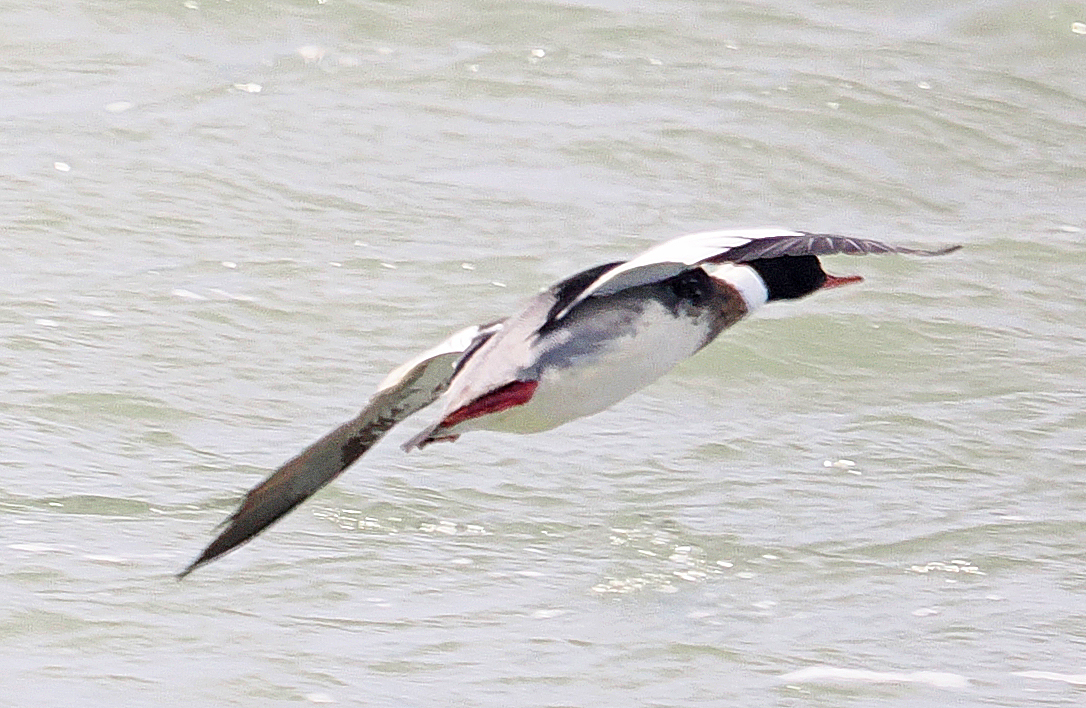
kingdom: Animalia
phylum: Chordata
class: Aves
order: Anseriformes
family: Anatidae
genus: Mergus
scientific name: Mergus serrator
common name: Red-breasted merganser
